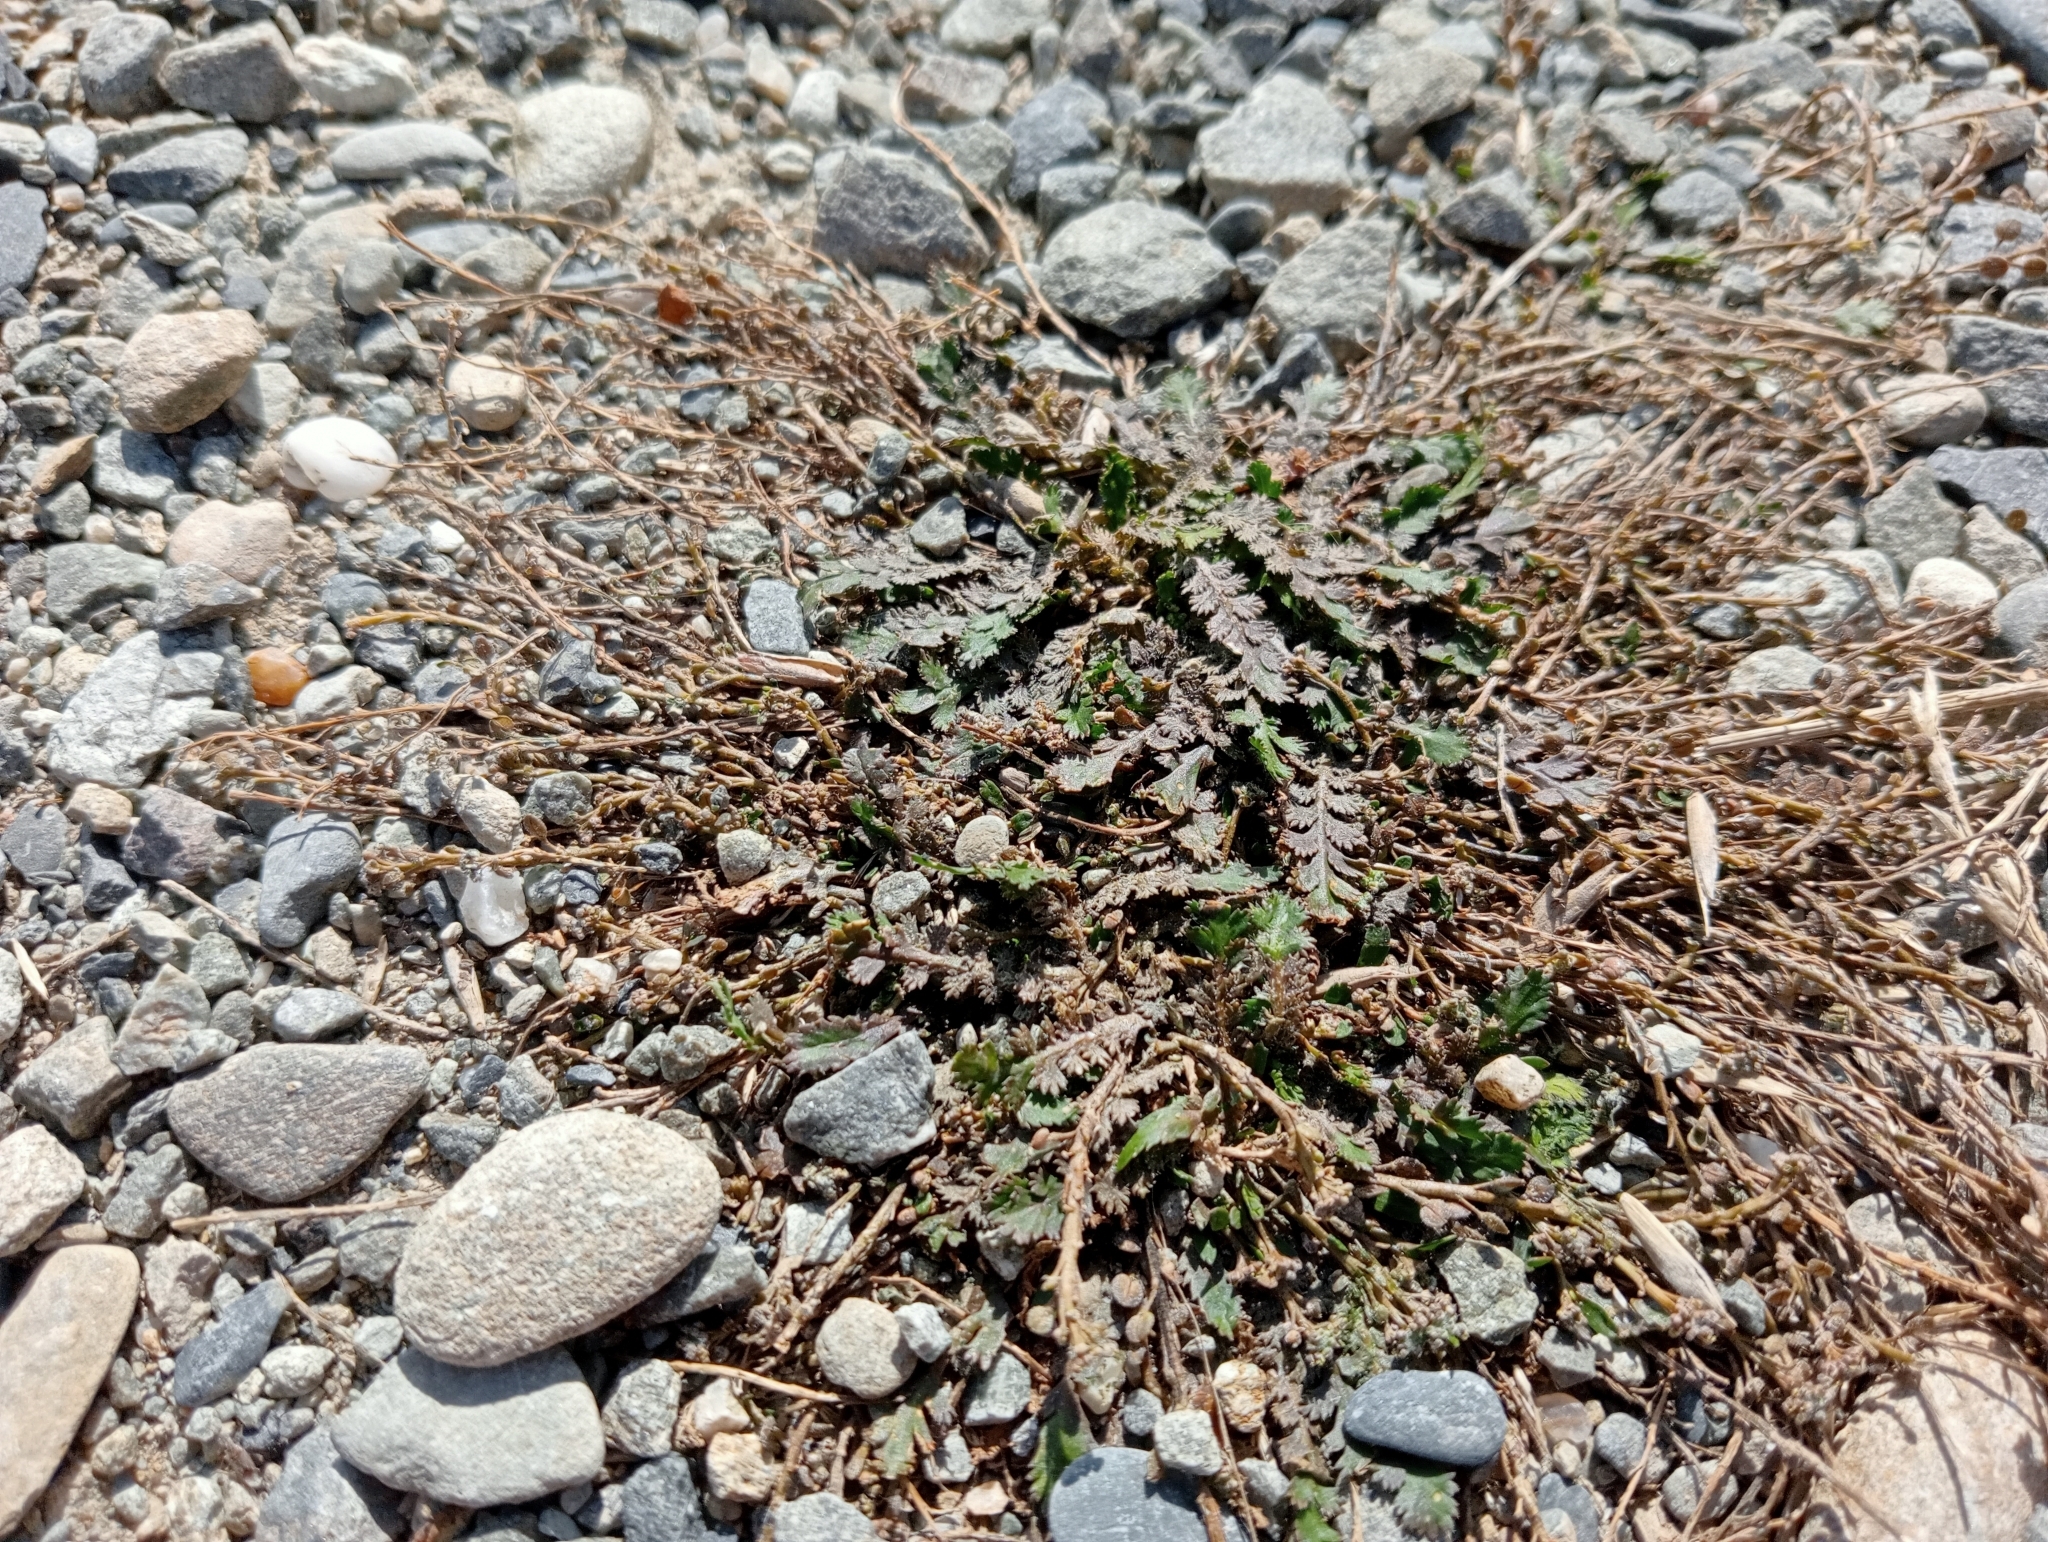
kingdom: Plantae
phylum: Tracheophyta
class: Magnoliopsida
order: Brassicales
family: Brassicaceae
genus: Lepidium
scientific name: Lepidium tenuicaule
